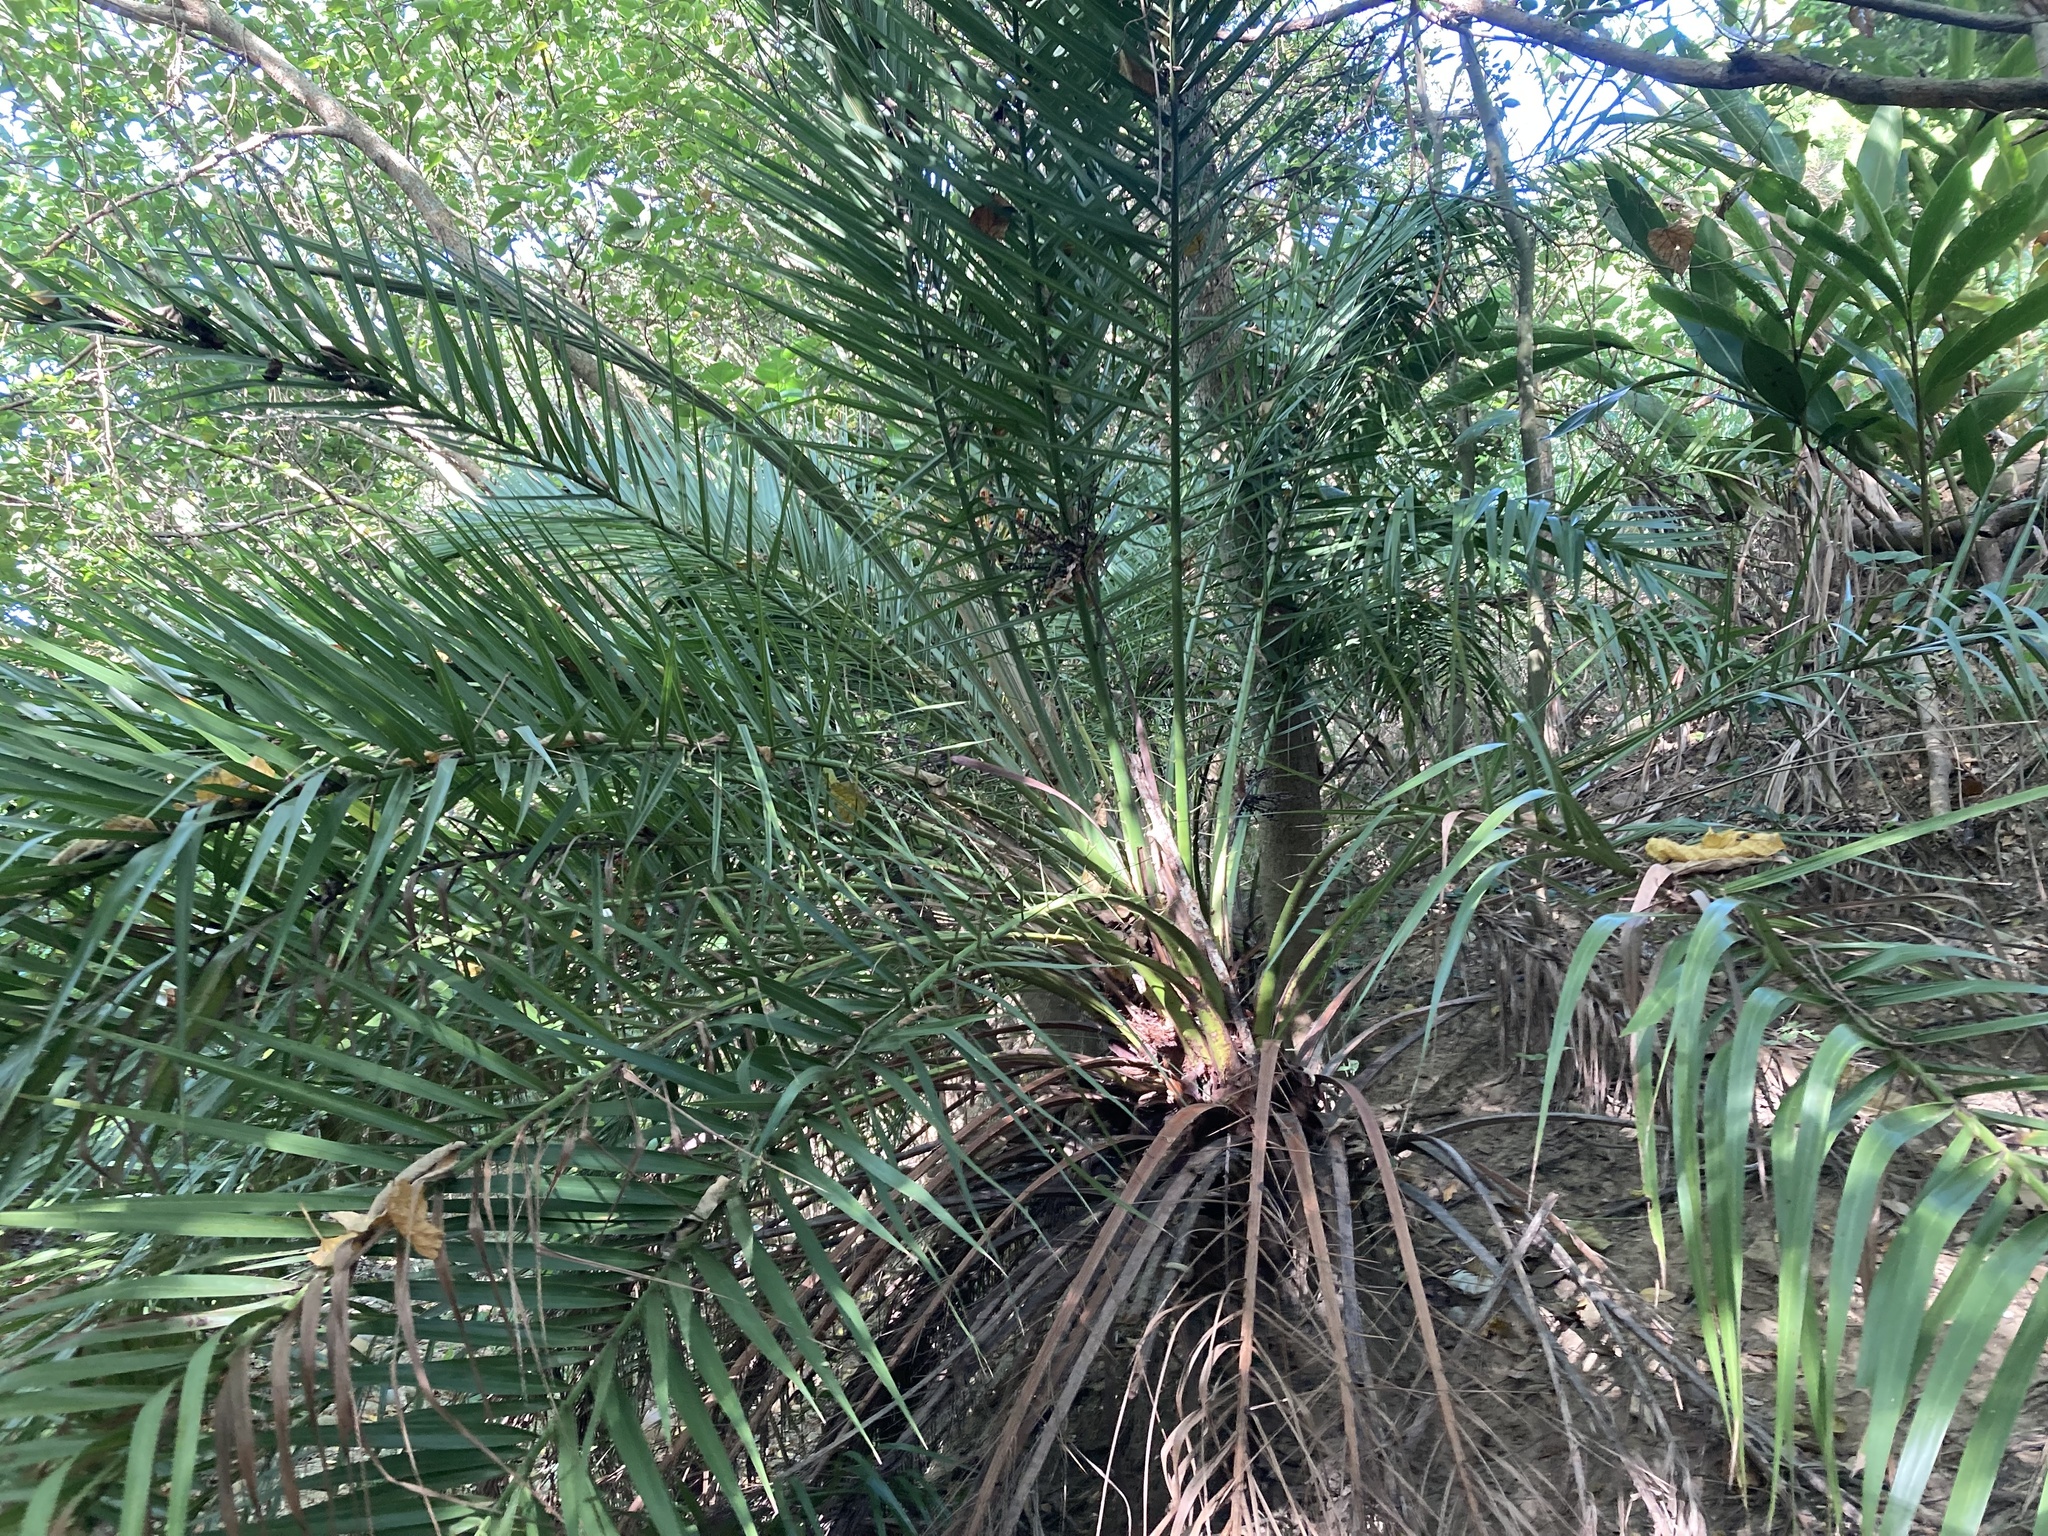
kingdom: Plantae
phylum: Tracheophyta
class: Liliopsida
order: Arecales
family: Arecaceae
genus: Phoenix
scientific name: Phoenix loureiroi
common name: Loureiro's palm
